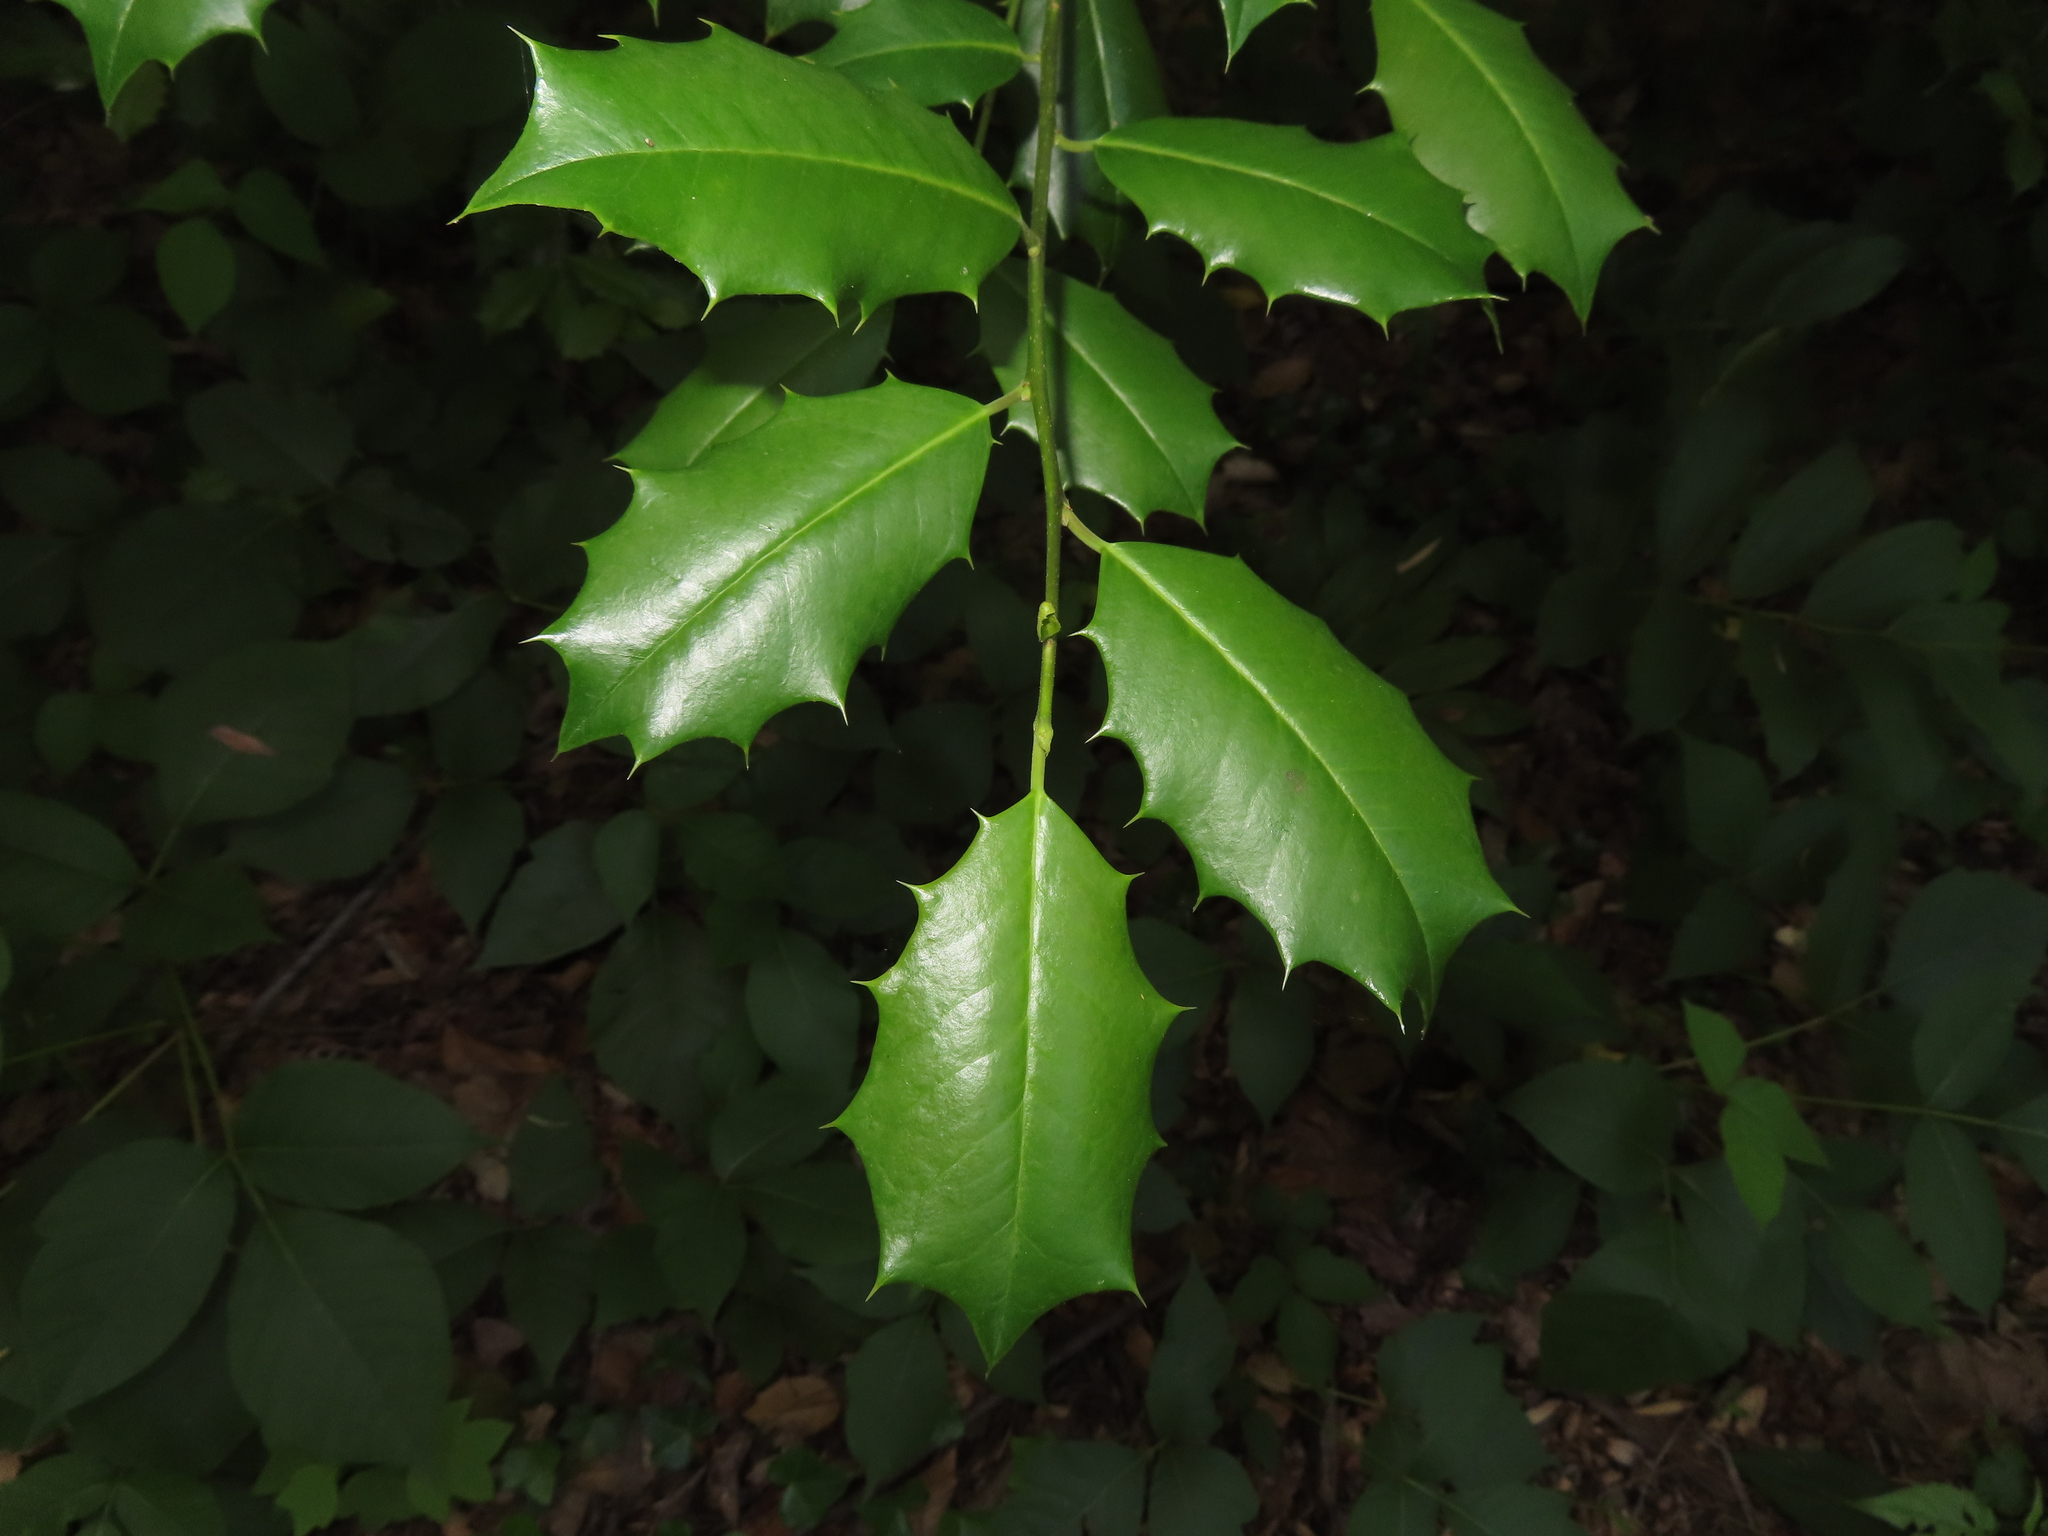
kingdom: Plantae
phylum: Tracheophyta
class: Magnoliopsida
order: Aquifoliales
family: Aquifoliaceae
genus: Ilex
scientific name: Ilex opaca
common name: American holly
